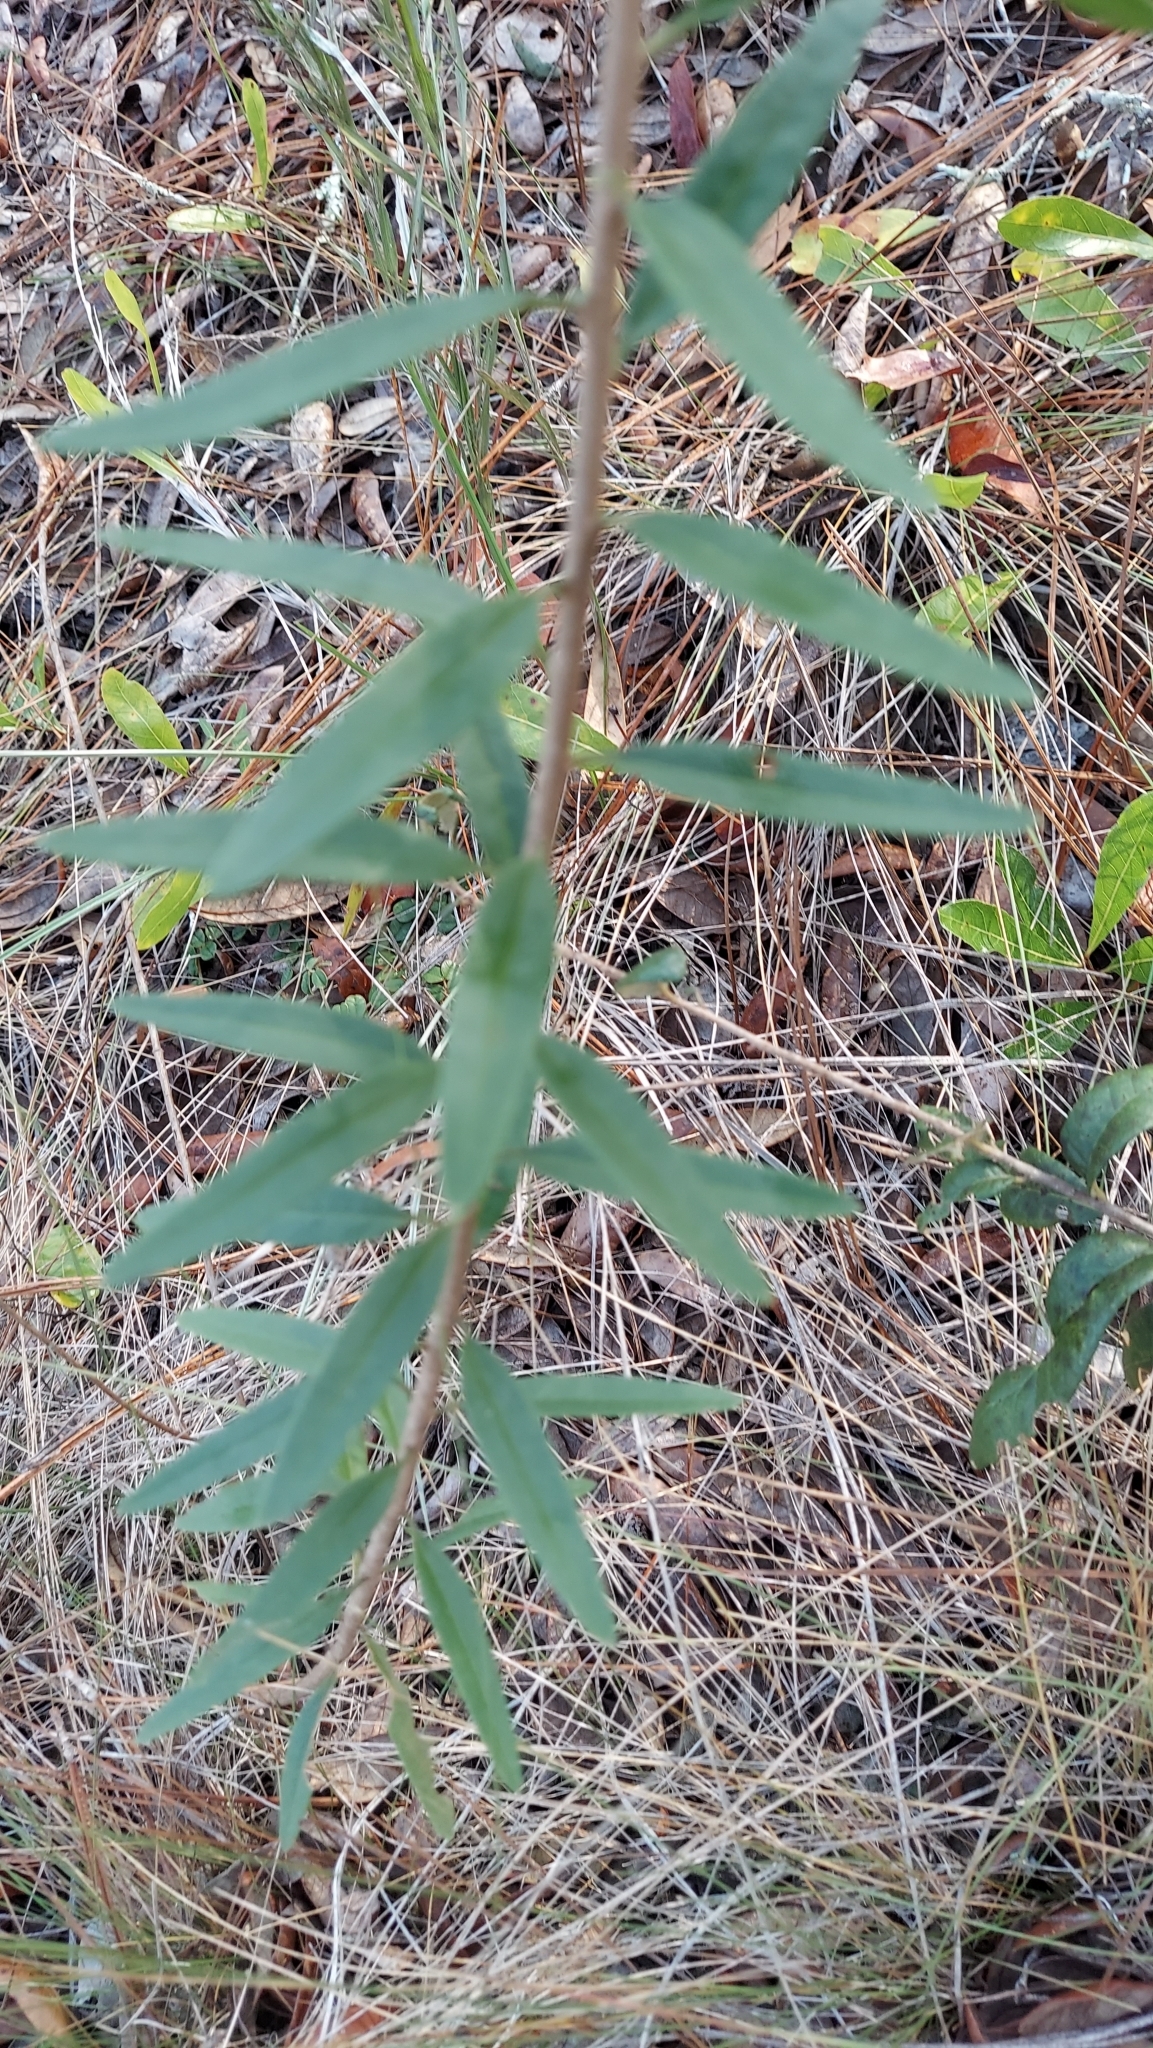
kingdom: Plantae
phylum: Tracheophyta
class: Magnoliopsida
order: Asterales
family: Asteraceae
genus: Palafoxia
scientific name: Palafoxia integrifolia
